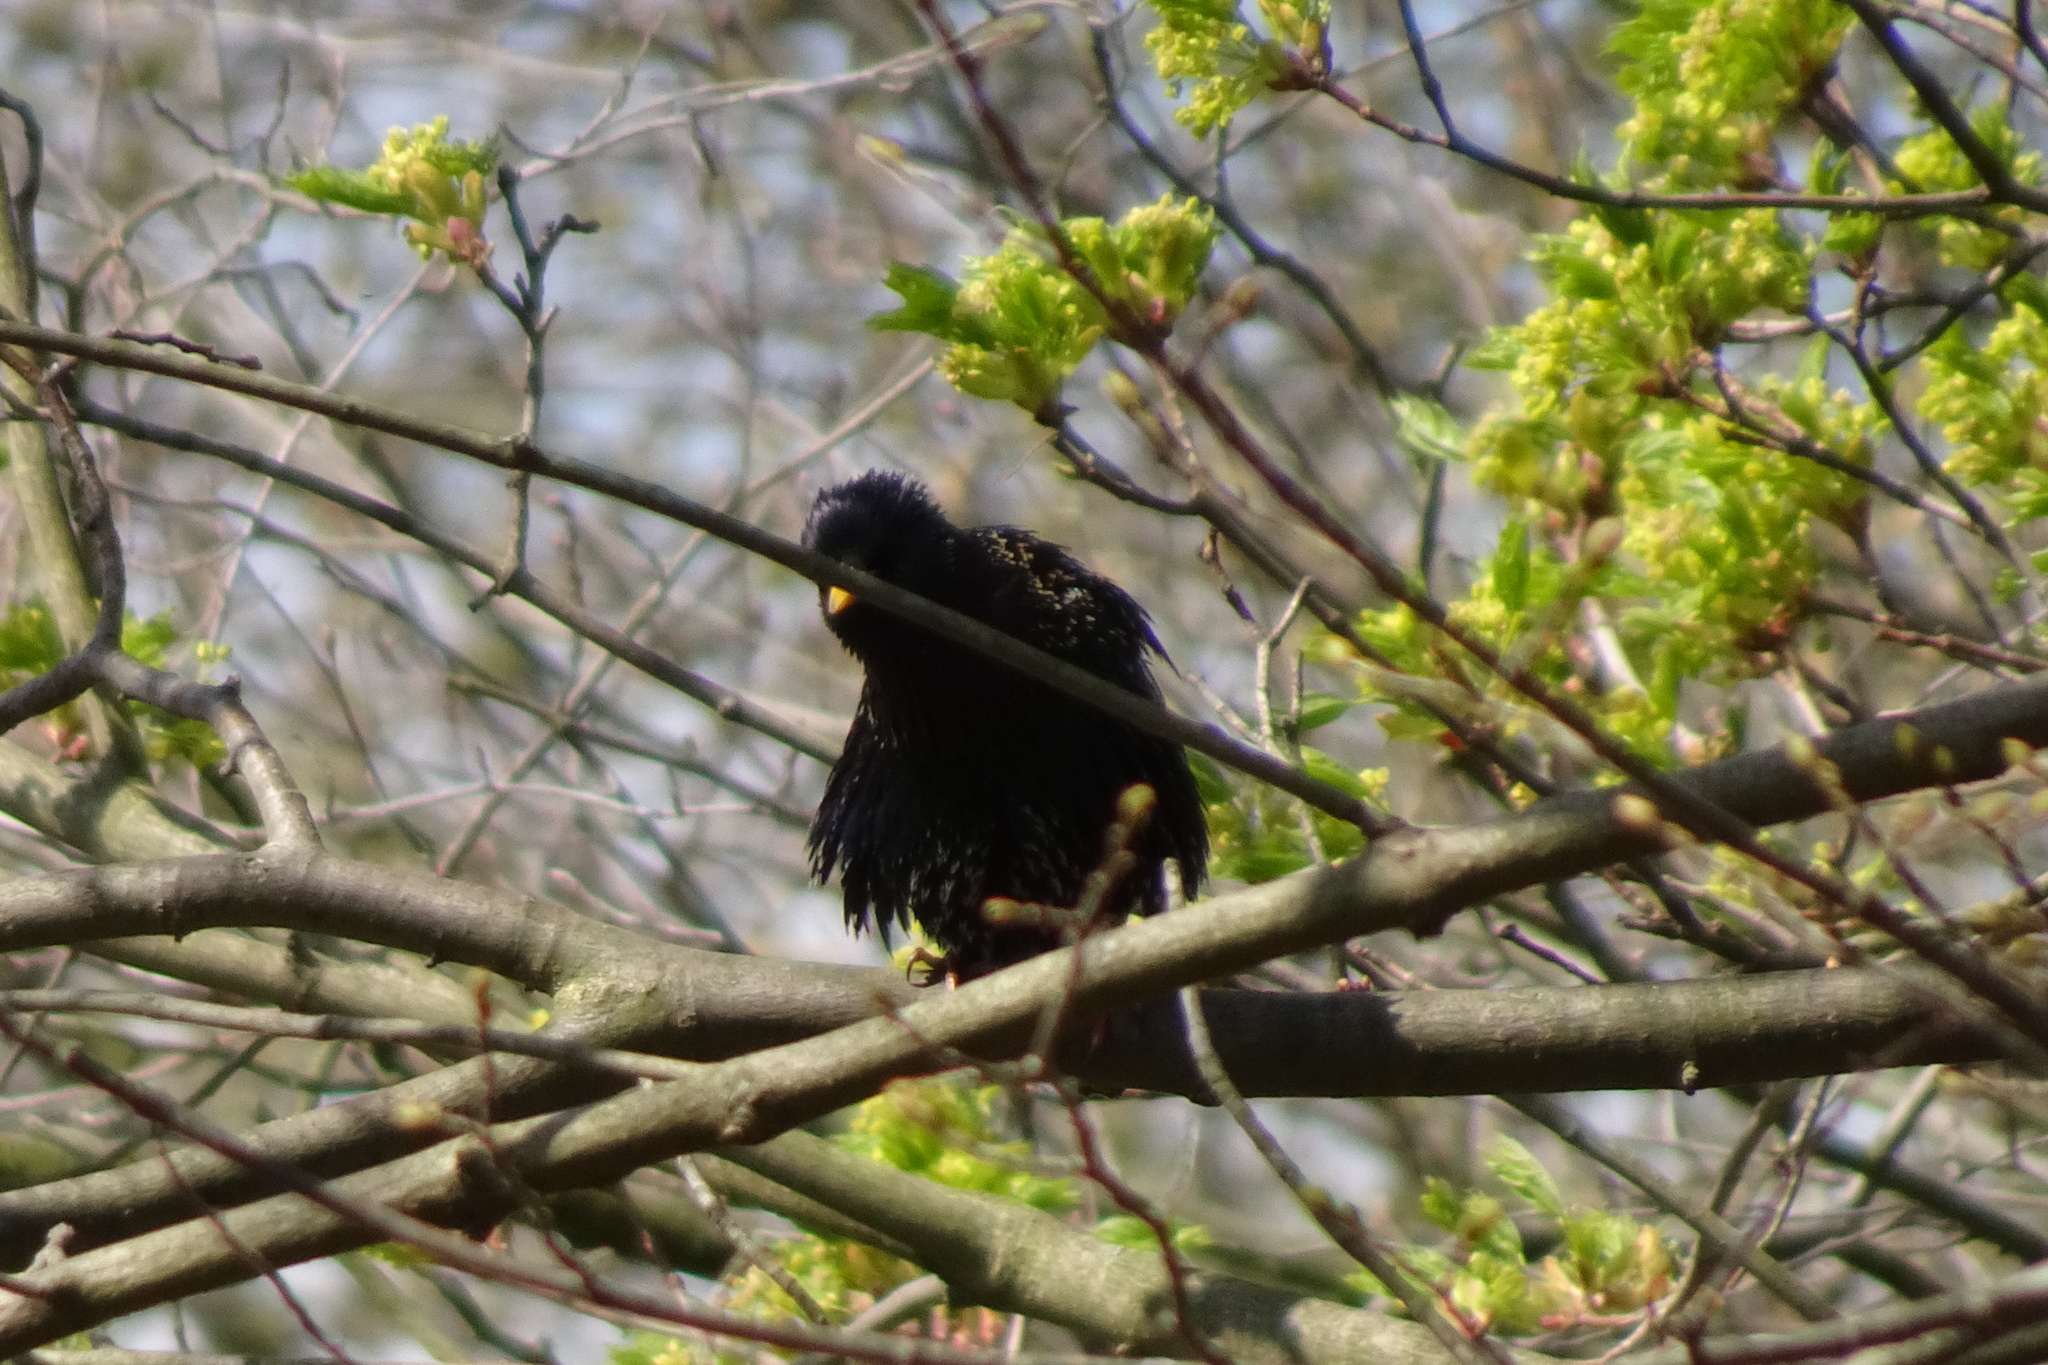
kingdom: Animalia
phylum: Chordata
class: Aves
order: Passeriformes
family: Sturnidae
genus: Sturnus
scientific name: Sturnus vulgaris
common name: Common starling
